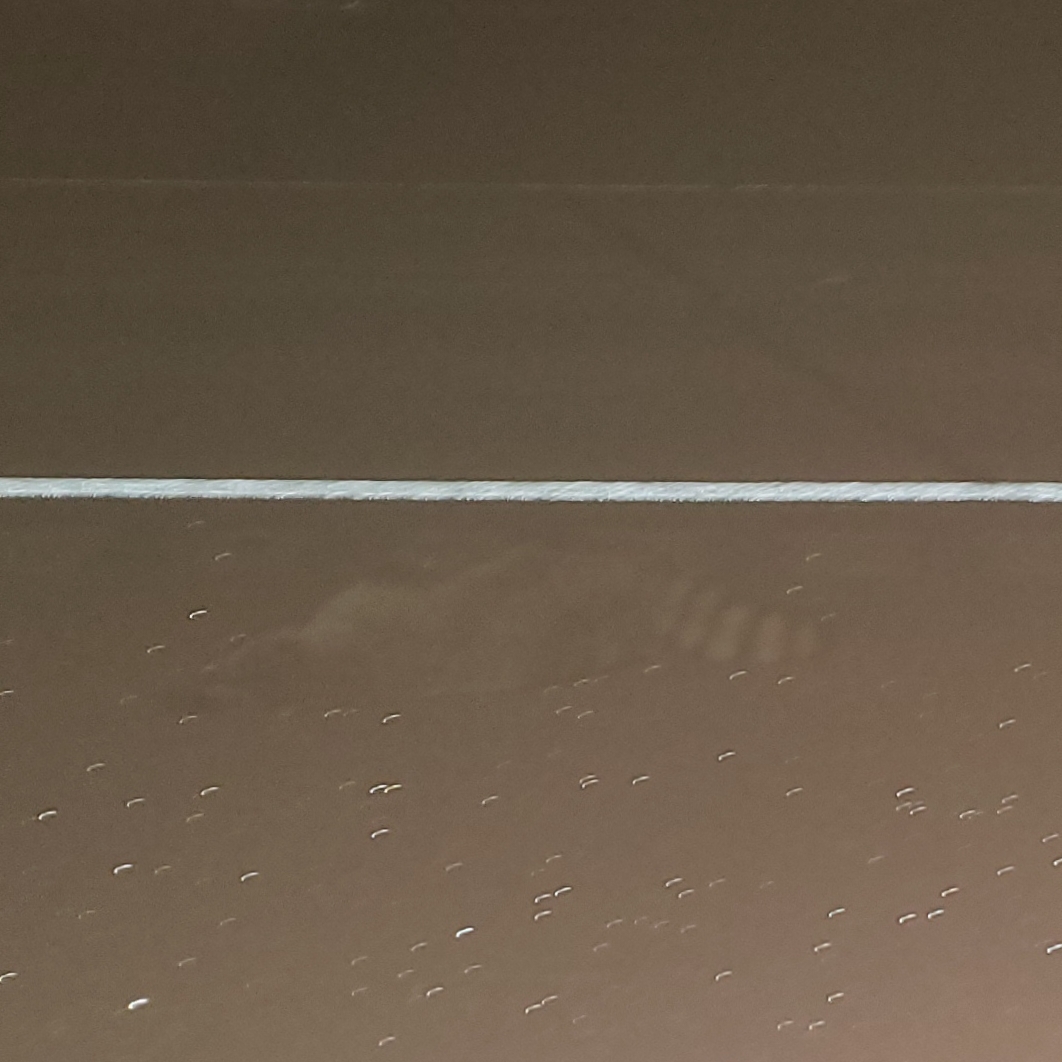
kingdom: Animalia
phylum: Chordata
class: Mammalia
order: Carnivora
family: Procyonidae
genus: Procyon
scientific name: Procyon lotor
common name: Raccoon
